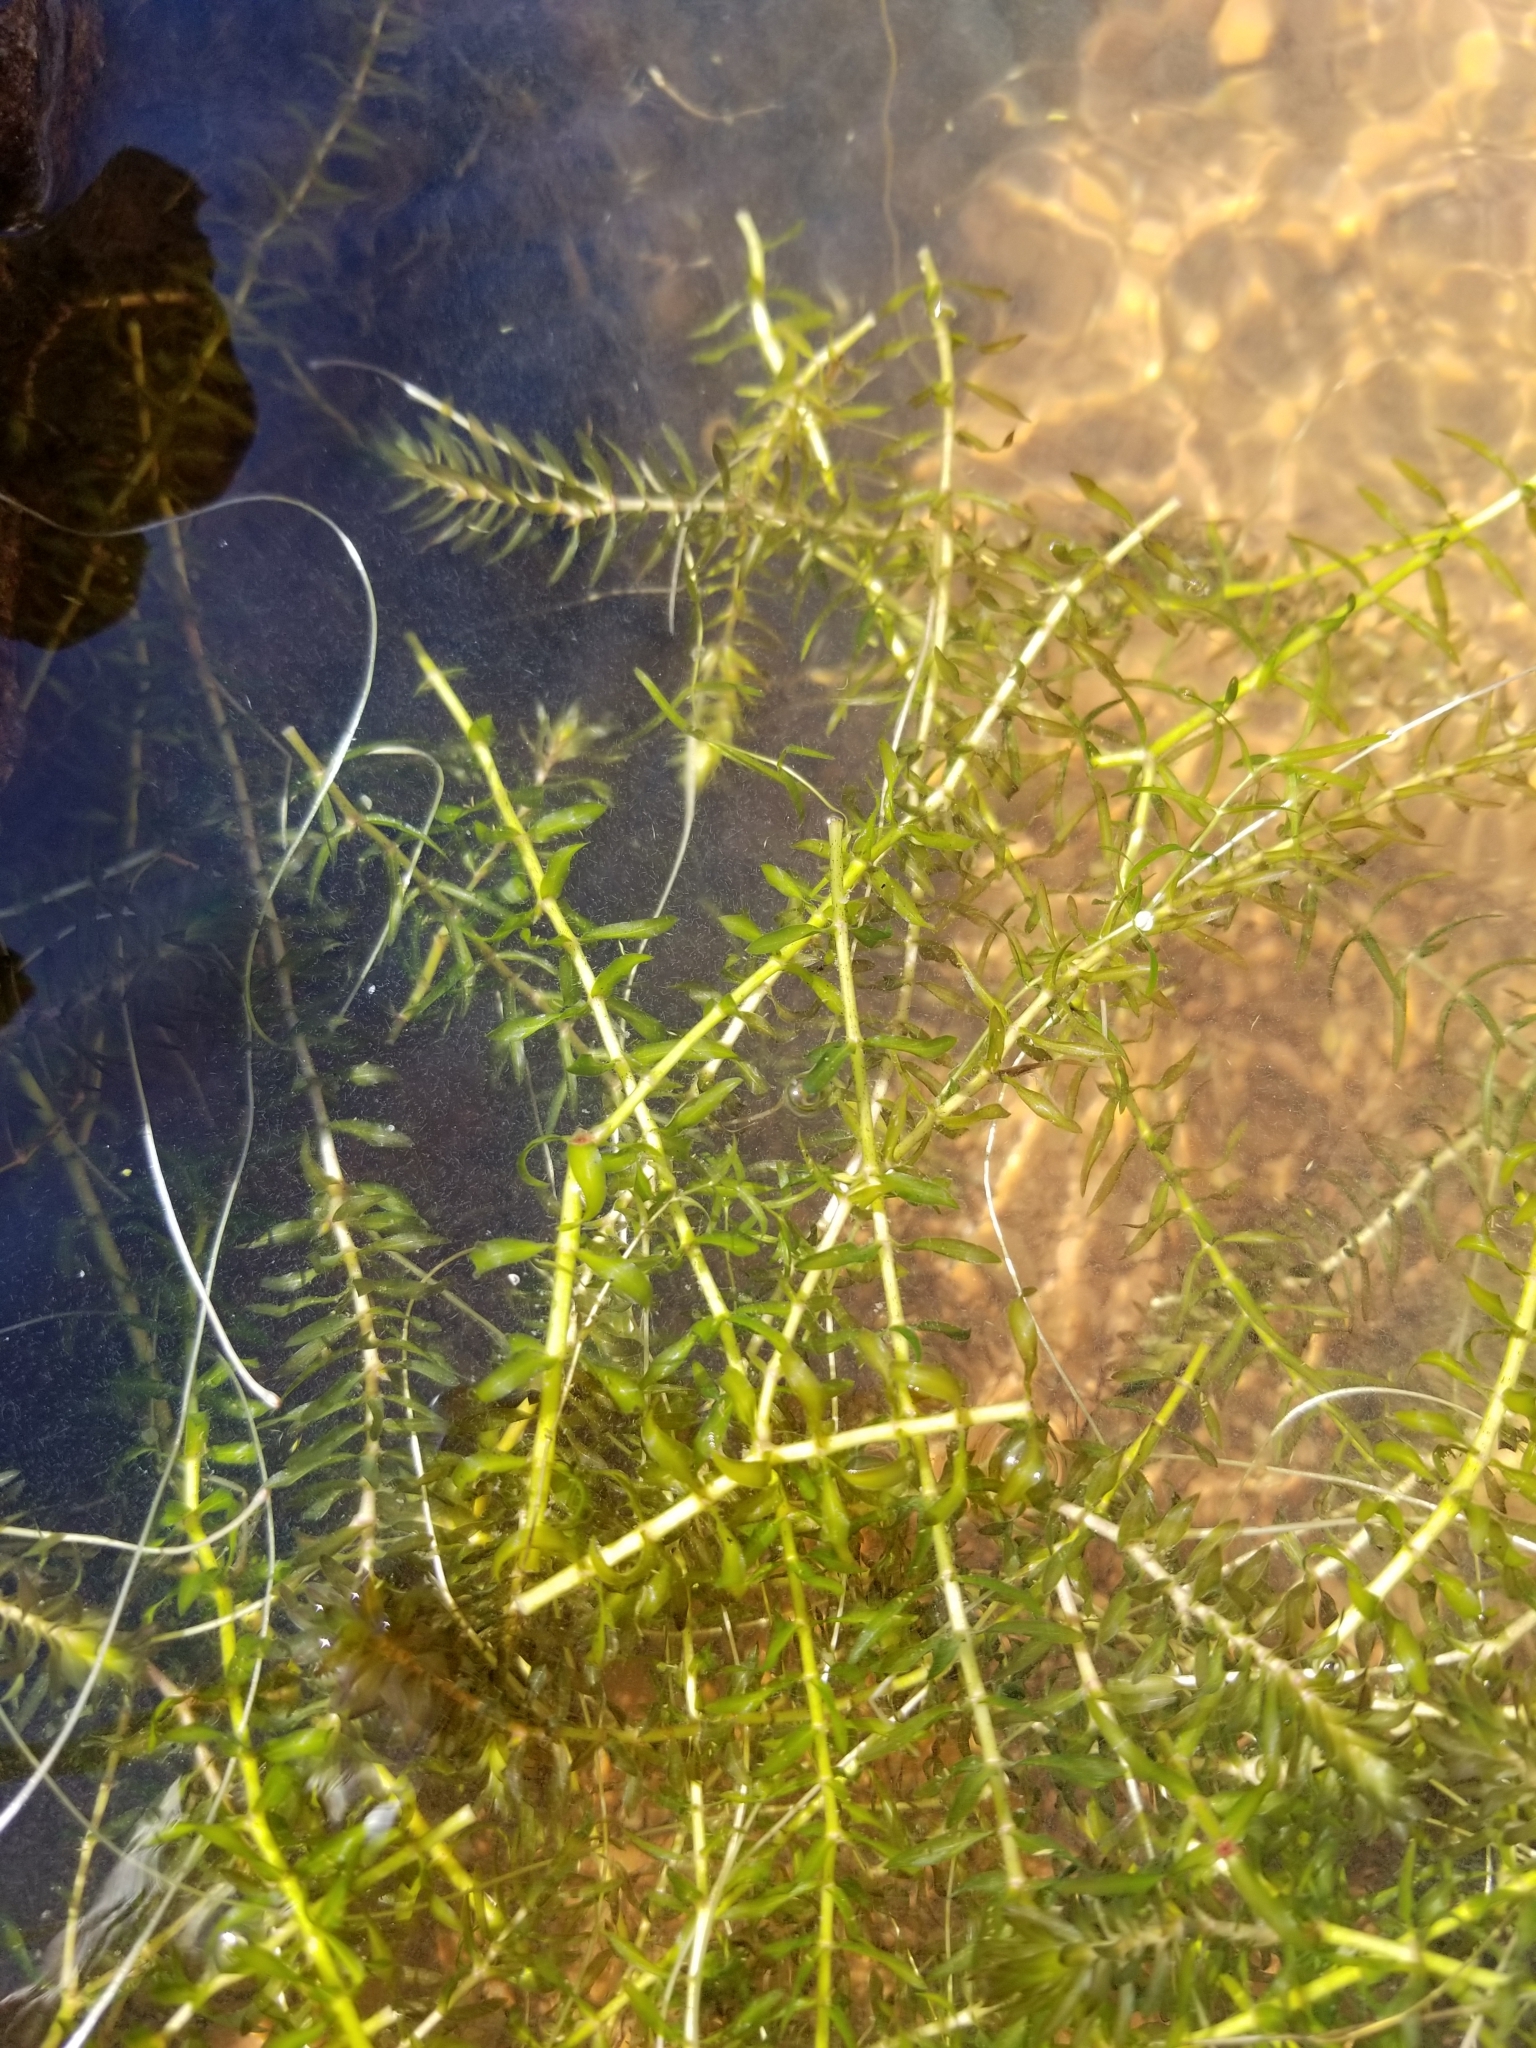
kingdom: Plantae
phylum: Tracheophyta
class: Liliopsida
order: Alismatales
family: Hydrocharitaceae
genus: Elodea
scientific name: Elodea canadensis
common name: Canadian waterweed
